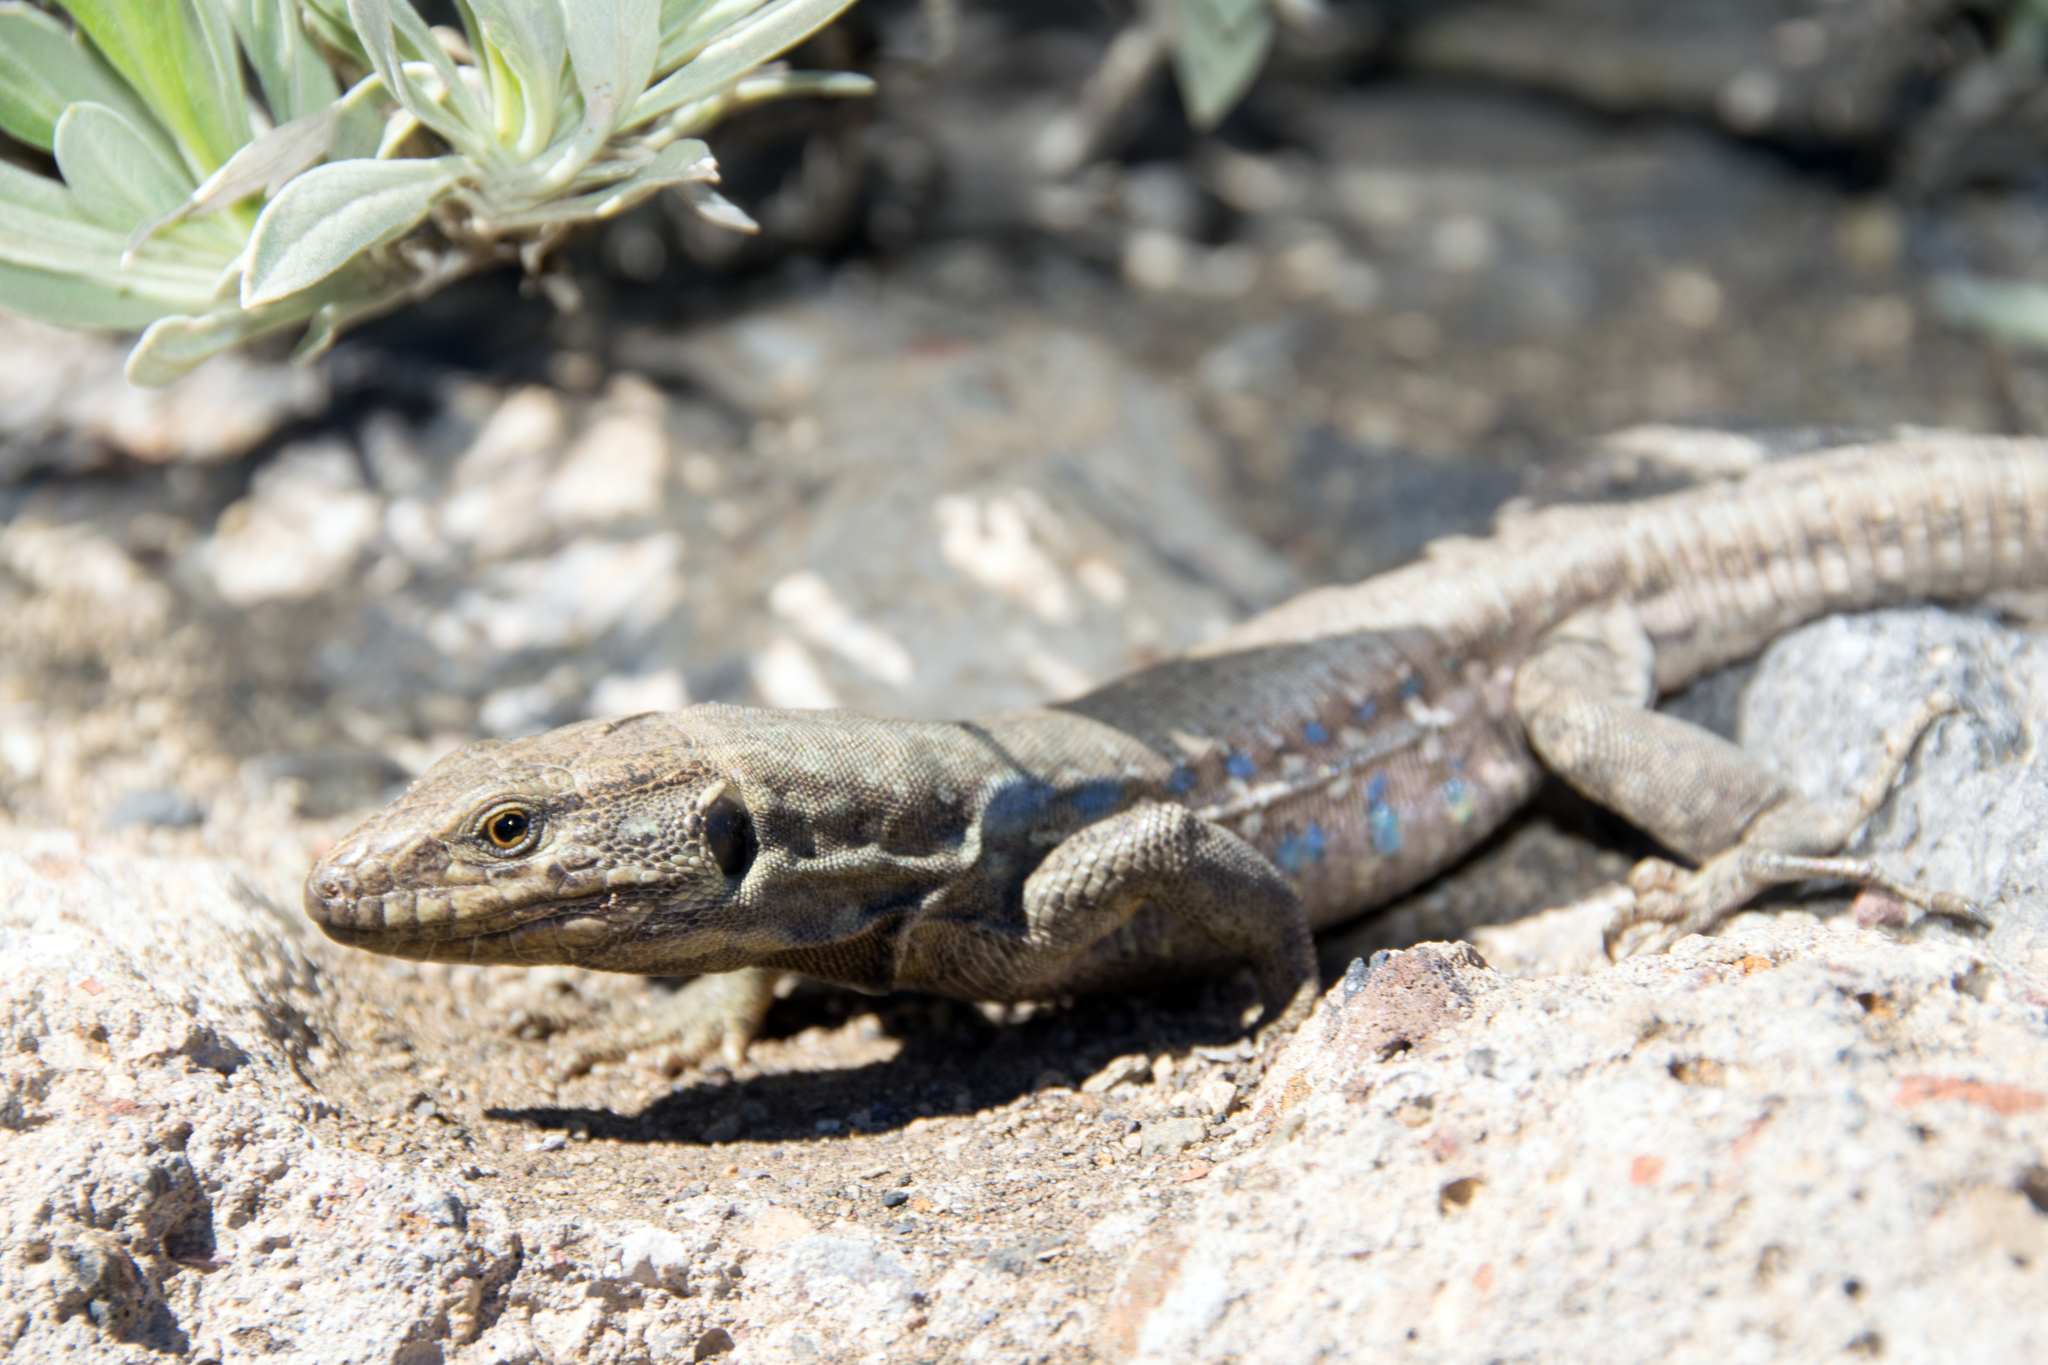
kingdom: Animalia
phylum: Chordata
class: Squamata
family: Lacertidae
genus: Gallotia
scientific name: Gallotia galloti
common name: Gallot's lizard
